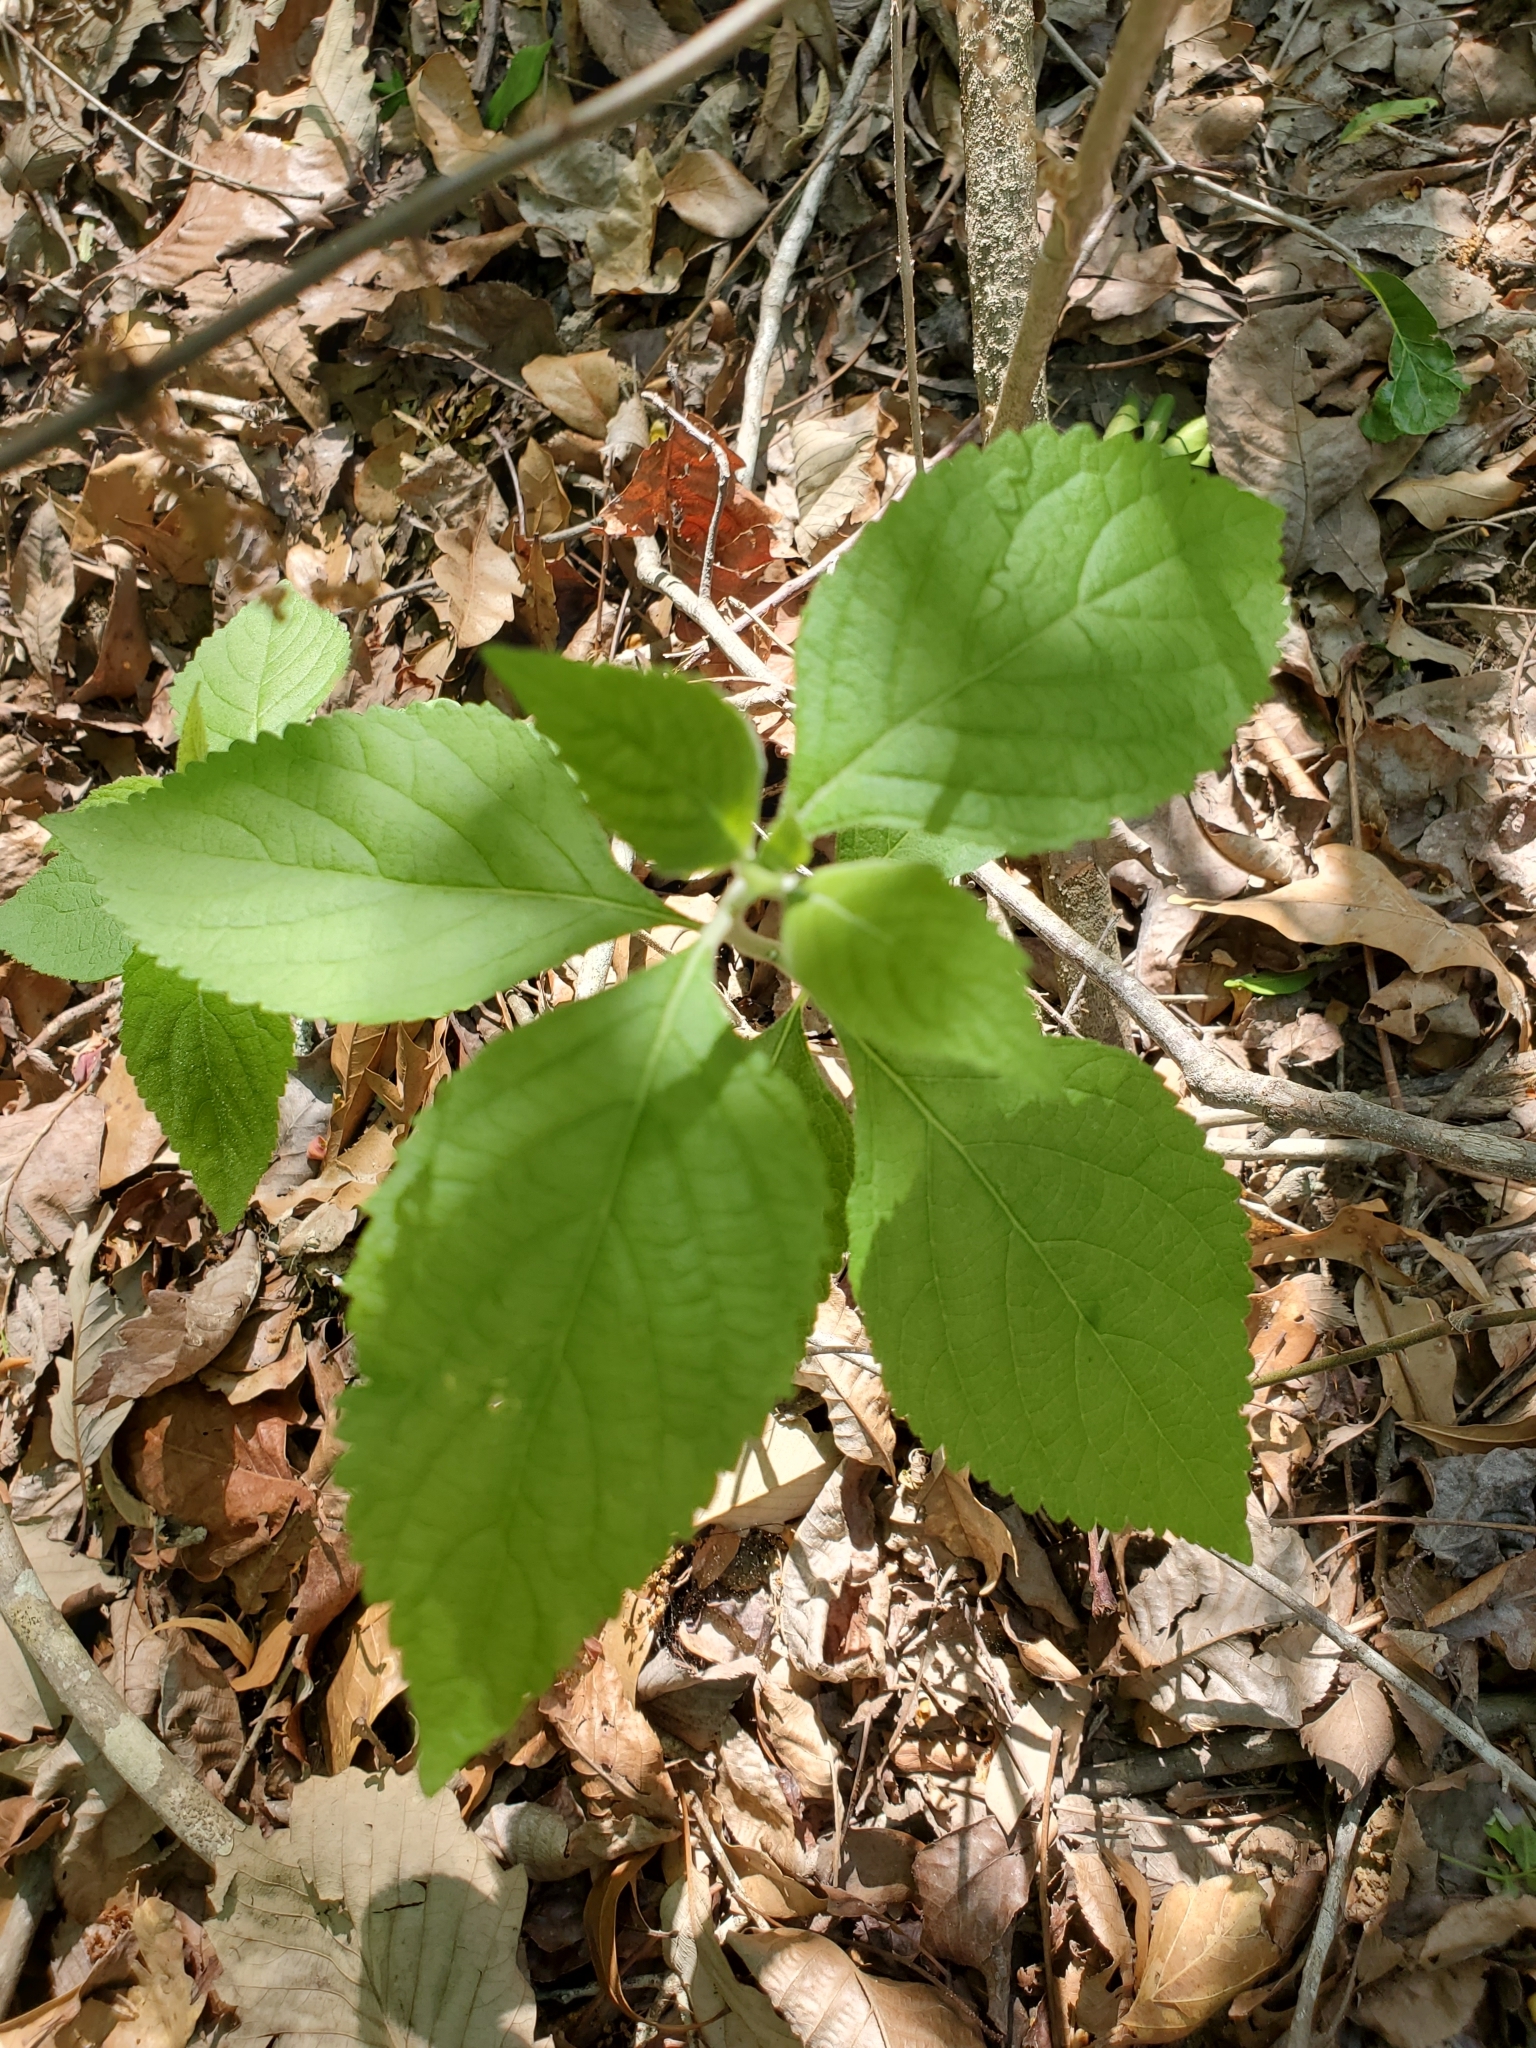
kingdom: Plantae
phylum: Tracheophyta
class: Magnoliopsida
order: Lamiales
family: Lamiaceae
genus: Callicarpa
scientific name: Callicarpa americana
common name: American beautyberry
